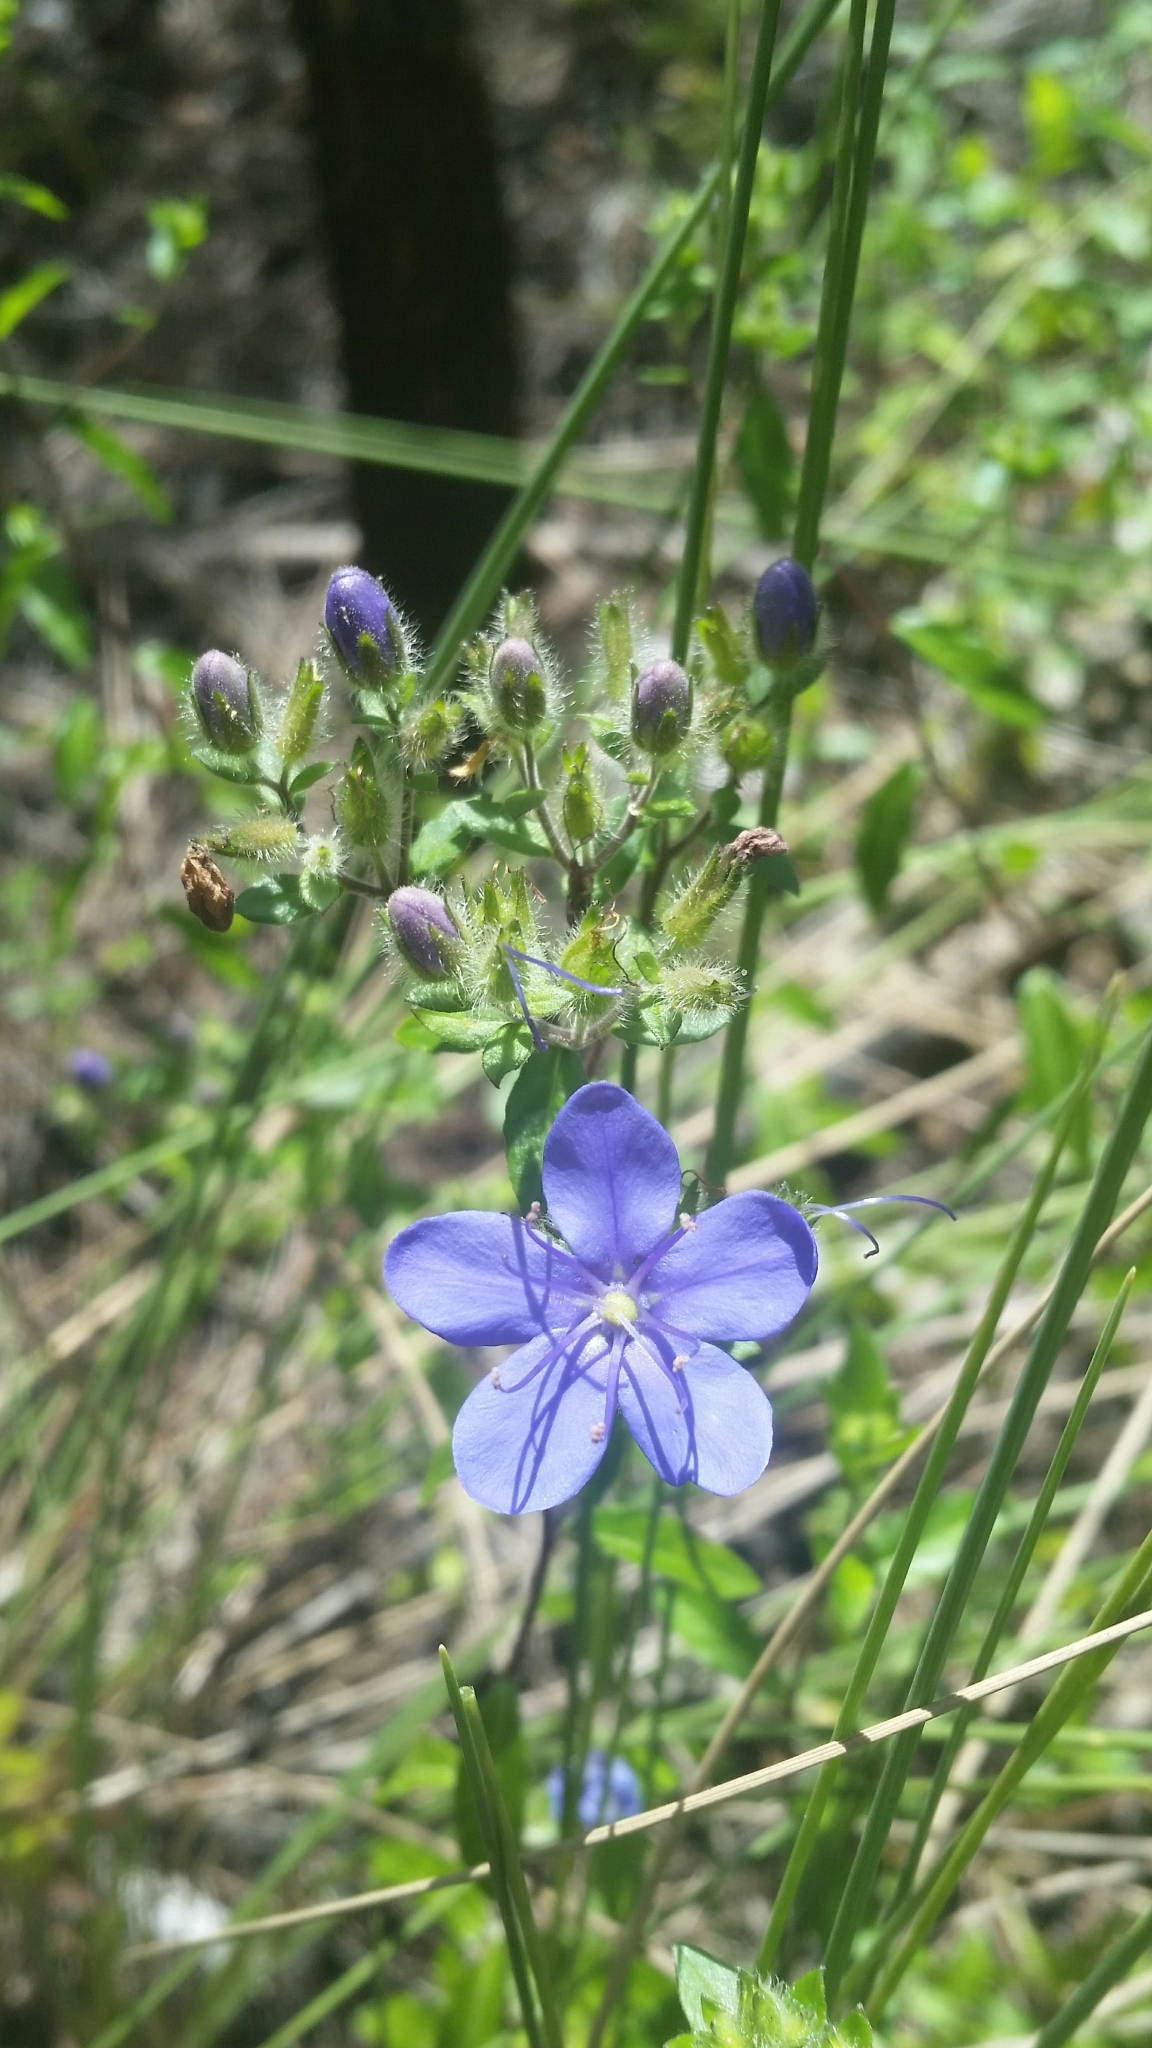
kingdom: Plantae
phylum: Tracheophyta
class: Magnoliopsida
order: Solanales
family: Hydroleaceae
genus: Hydrolea
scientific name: Hydrolea corymbosa
